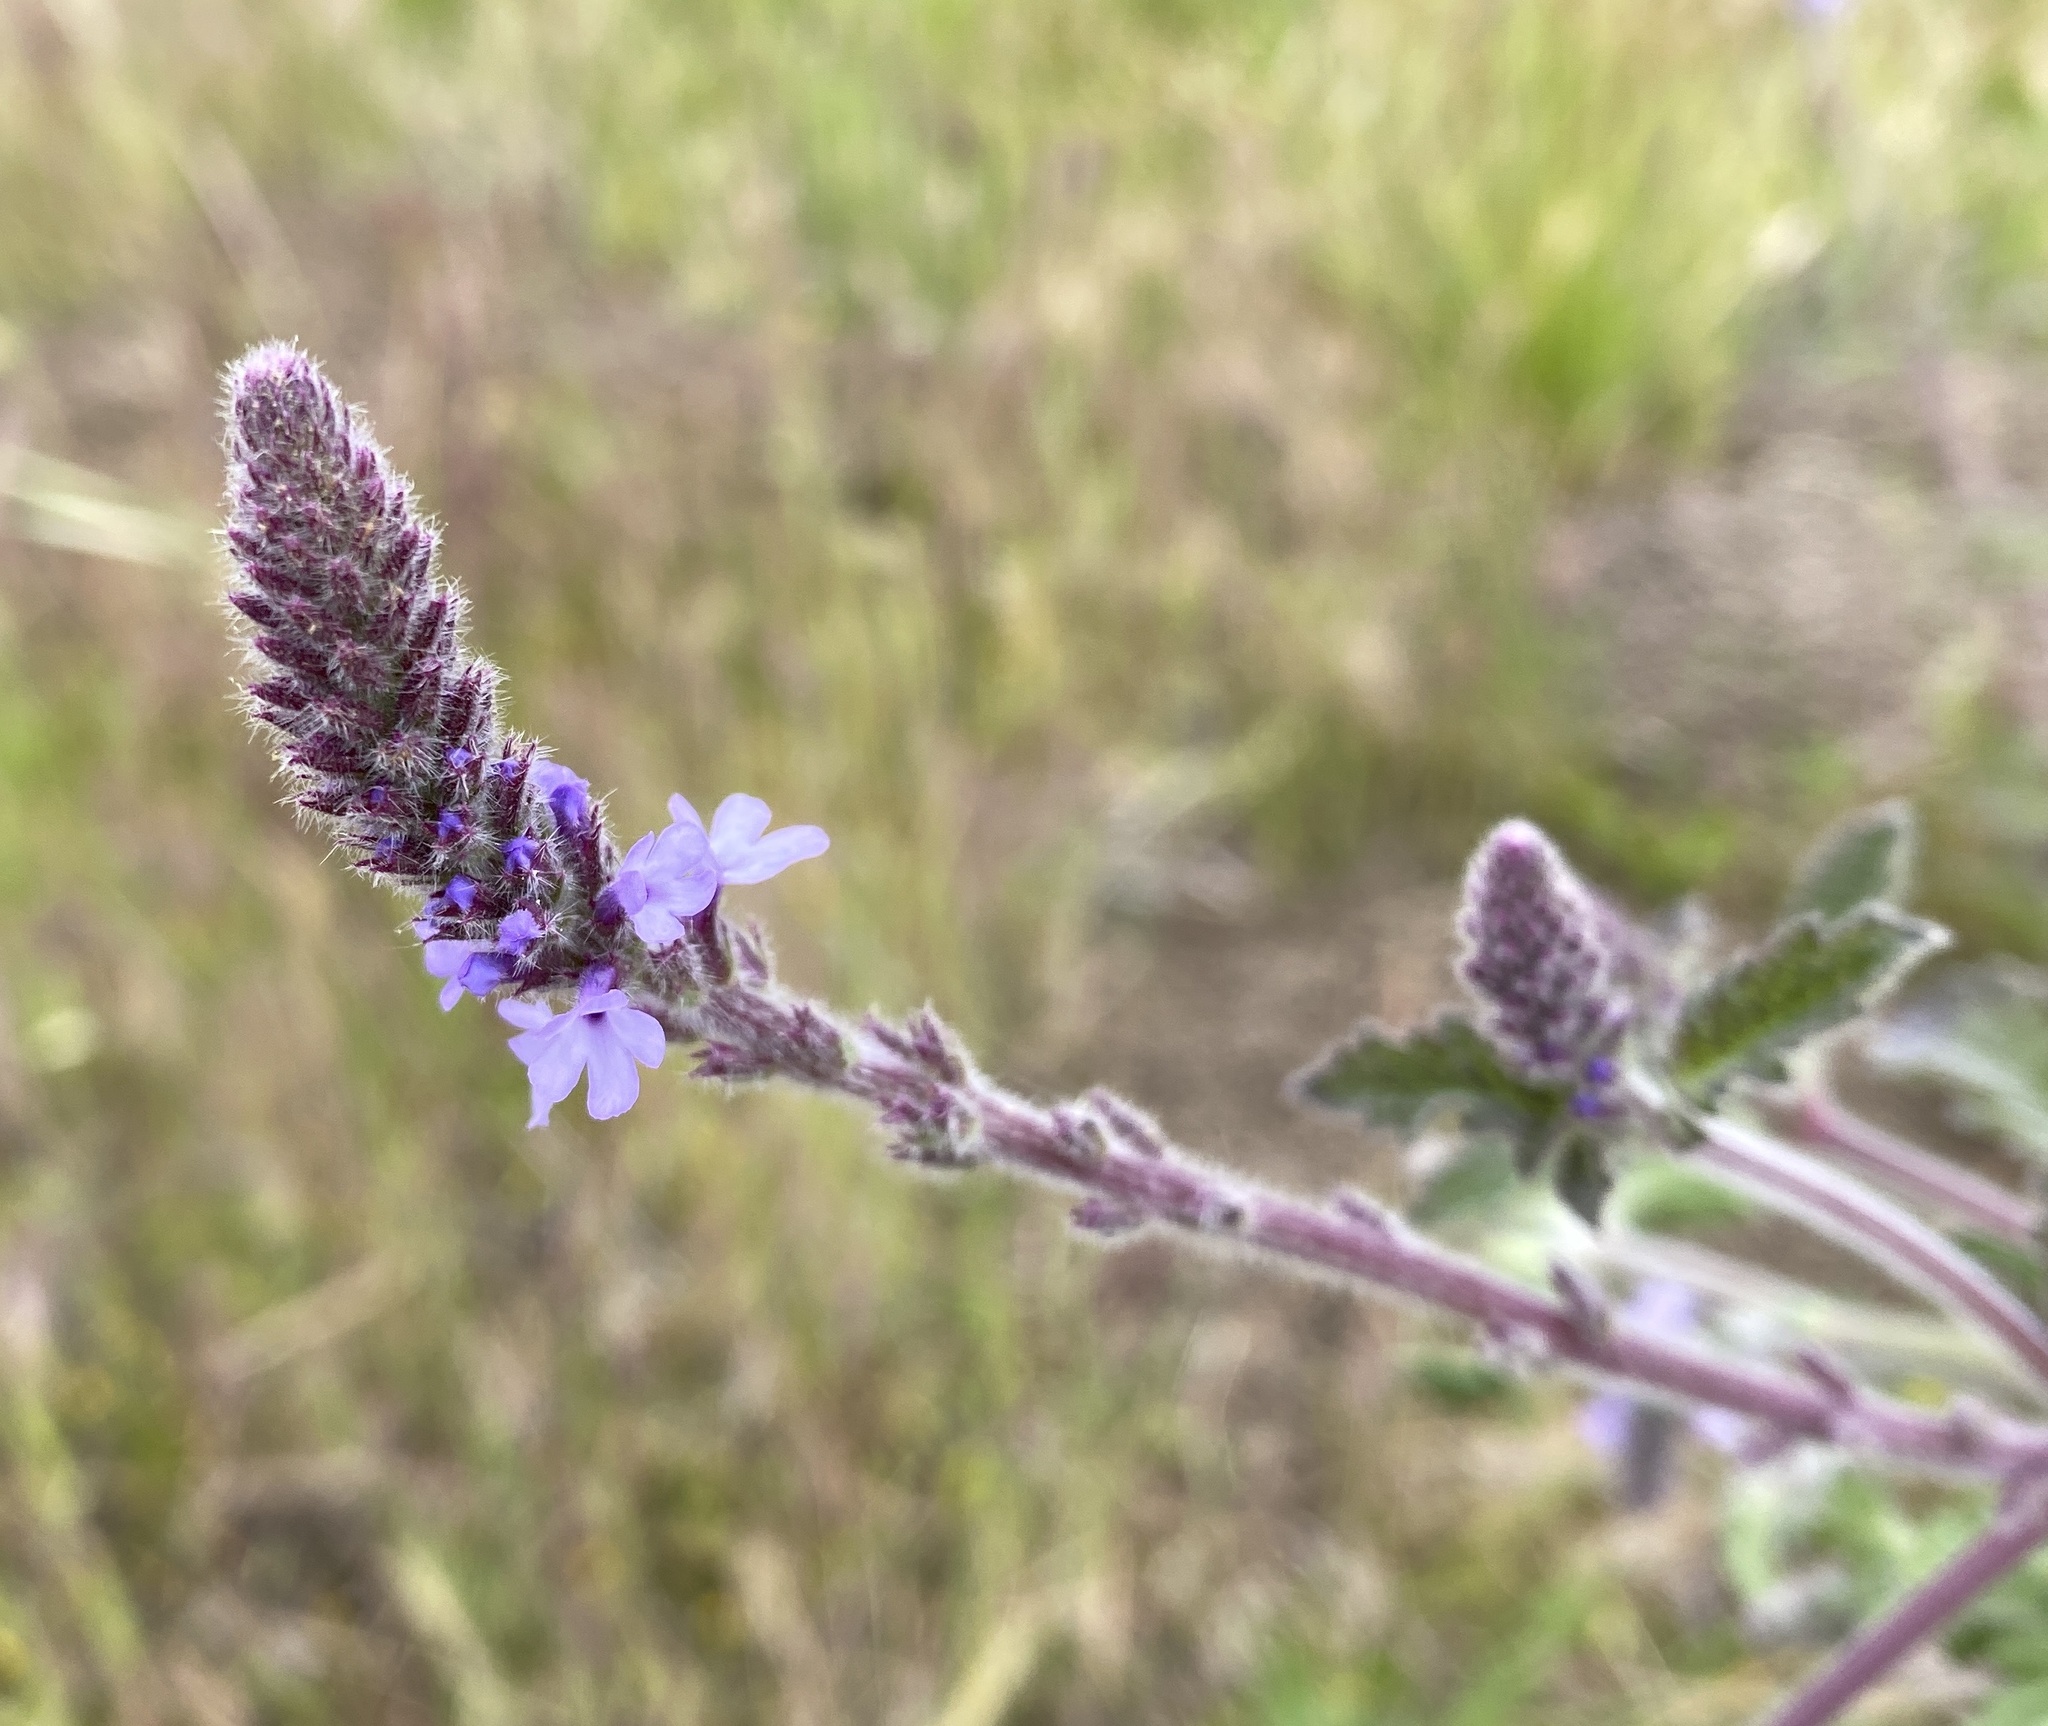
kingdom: Plantae
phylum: Tracheophyta
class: Magnoliopsida
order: Lamiales
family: Verbenaceae
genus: Verbena
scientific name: Verbena lasiostachys
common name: Vervain
